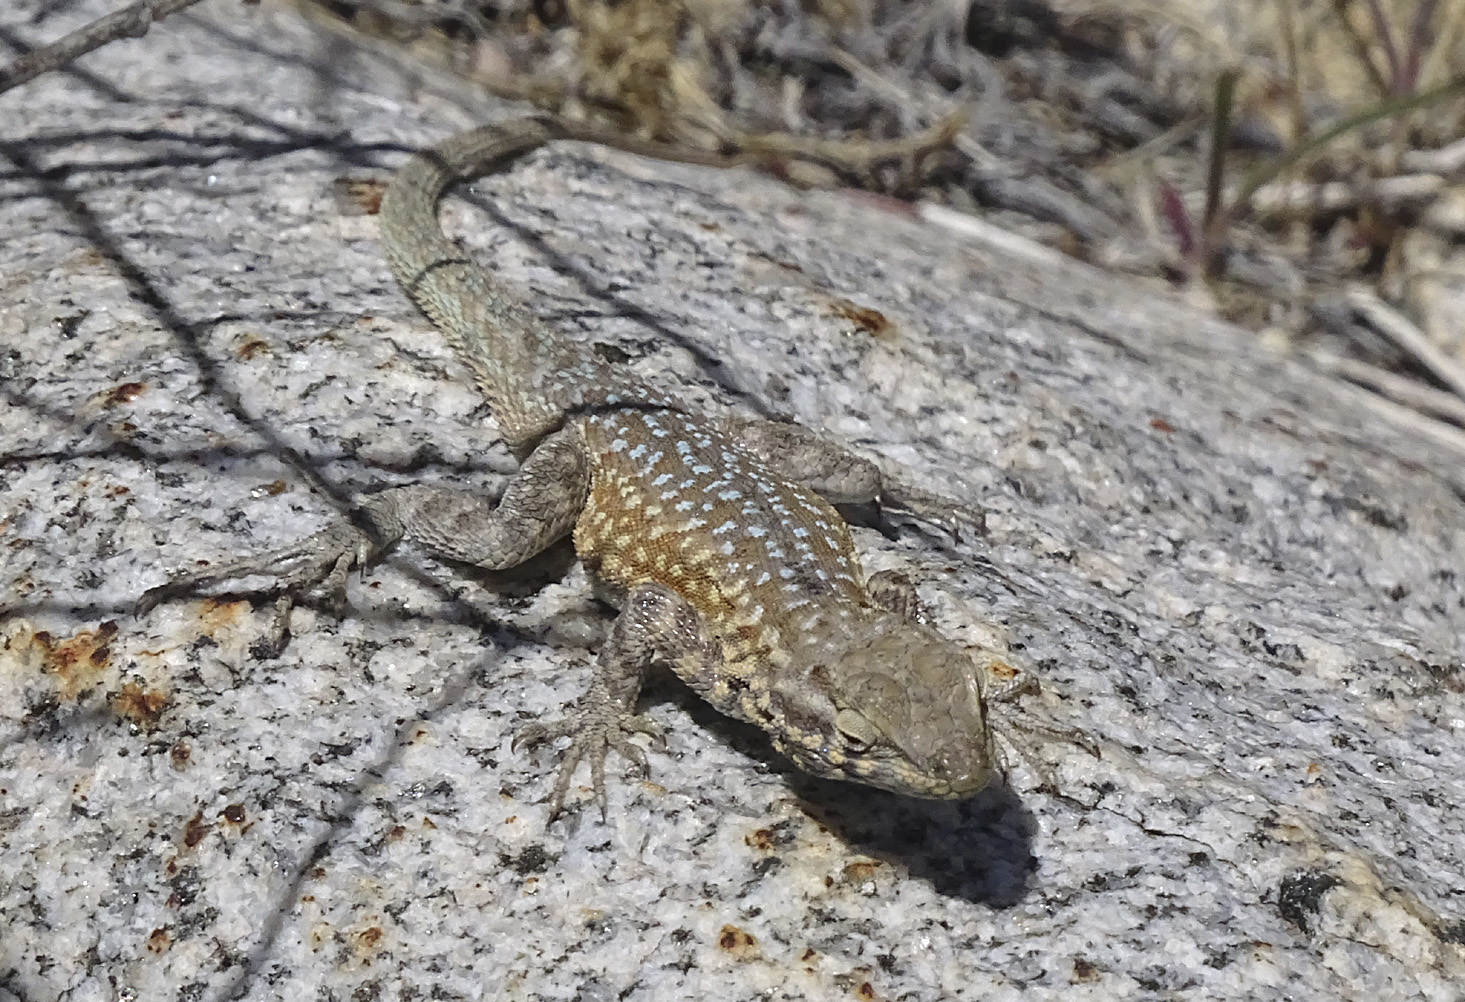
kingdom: Animalia
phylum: Chordata
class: Squamata
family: Phrynosomatidae
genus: Uta
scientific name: Uta stansburiana
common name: Side-blotched lizard
